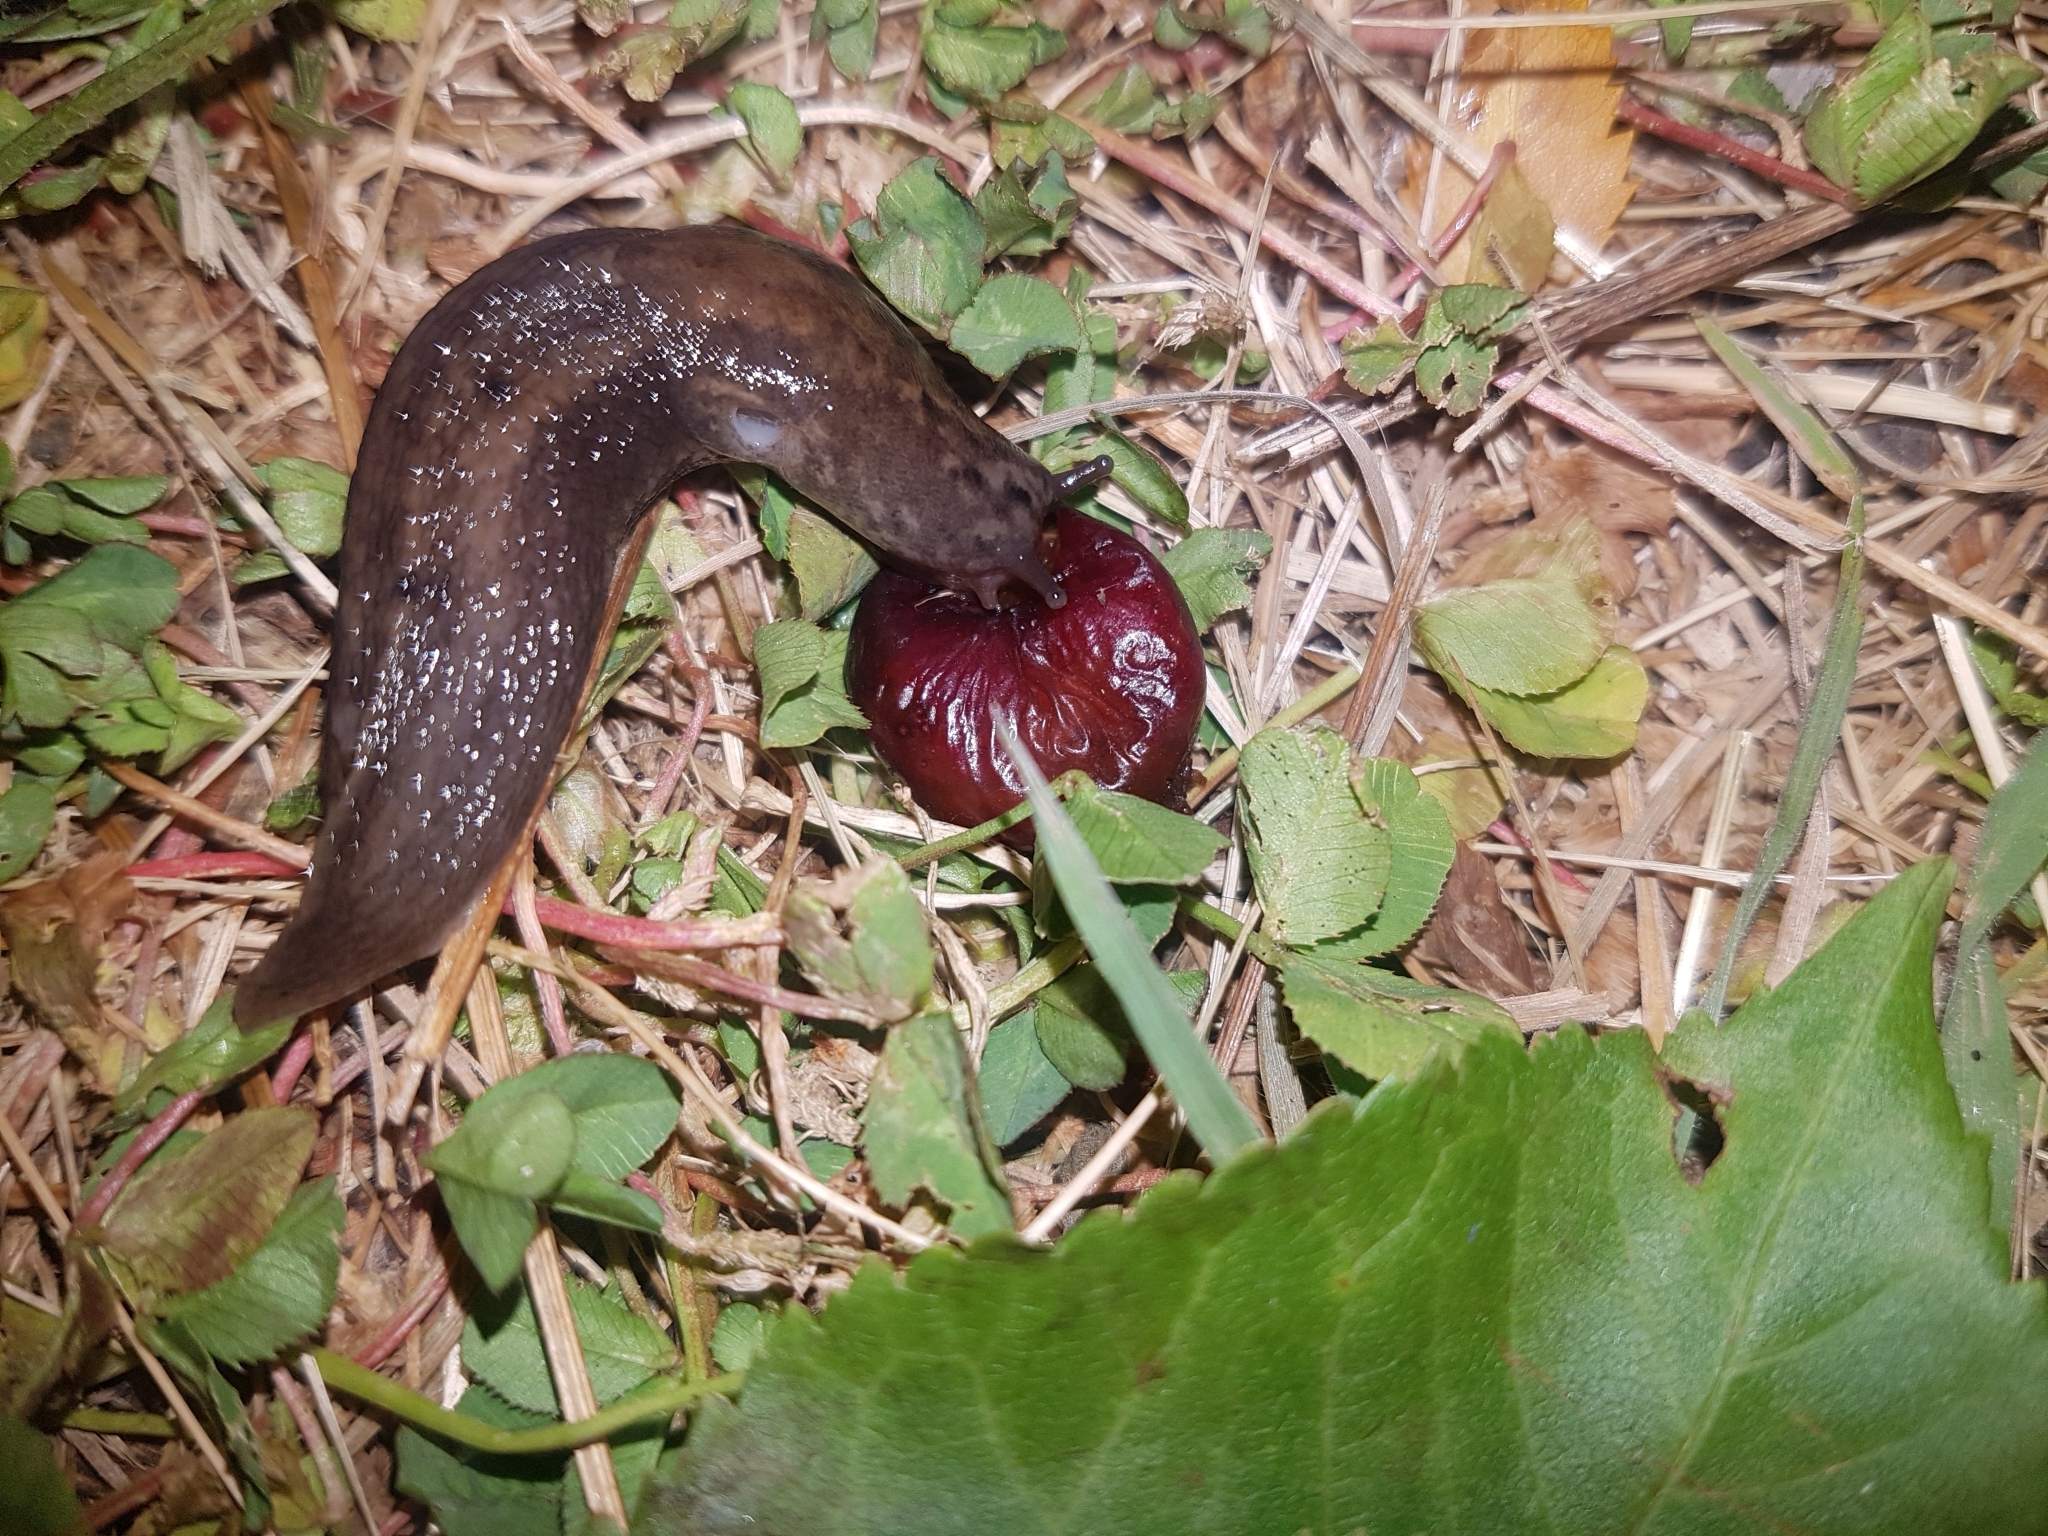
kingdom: Animalia
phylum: Mollusca
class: Gastropoda
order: Stylommatophora
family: Limacidae
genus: Limax
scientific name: Limax maximus
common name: Great grey slug
